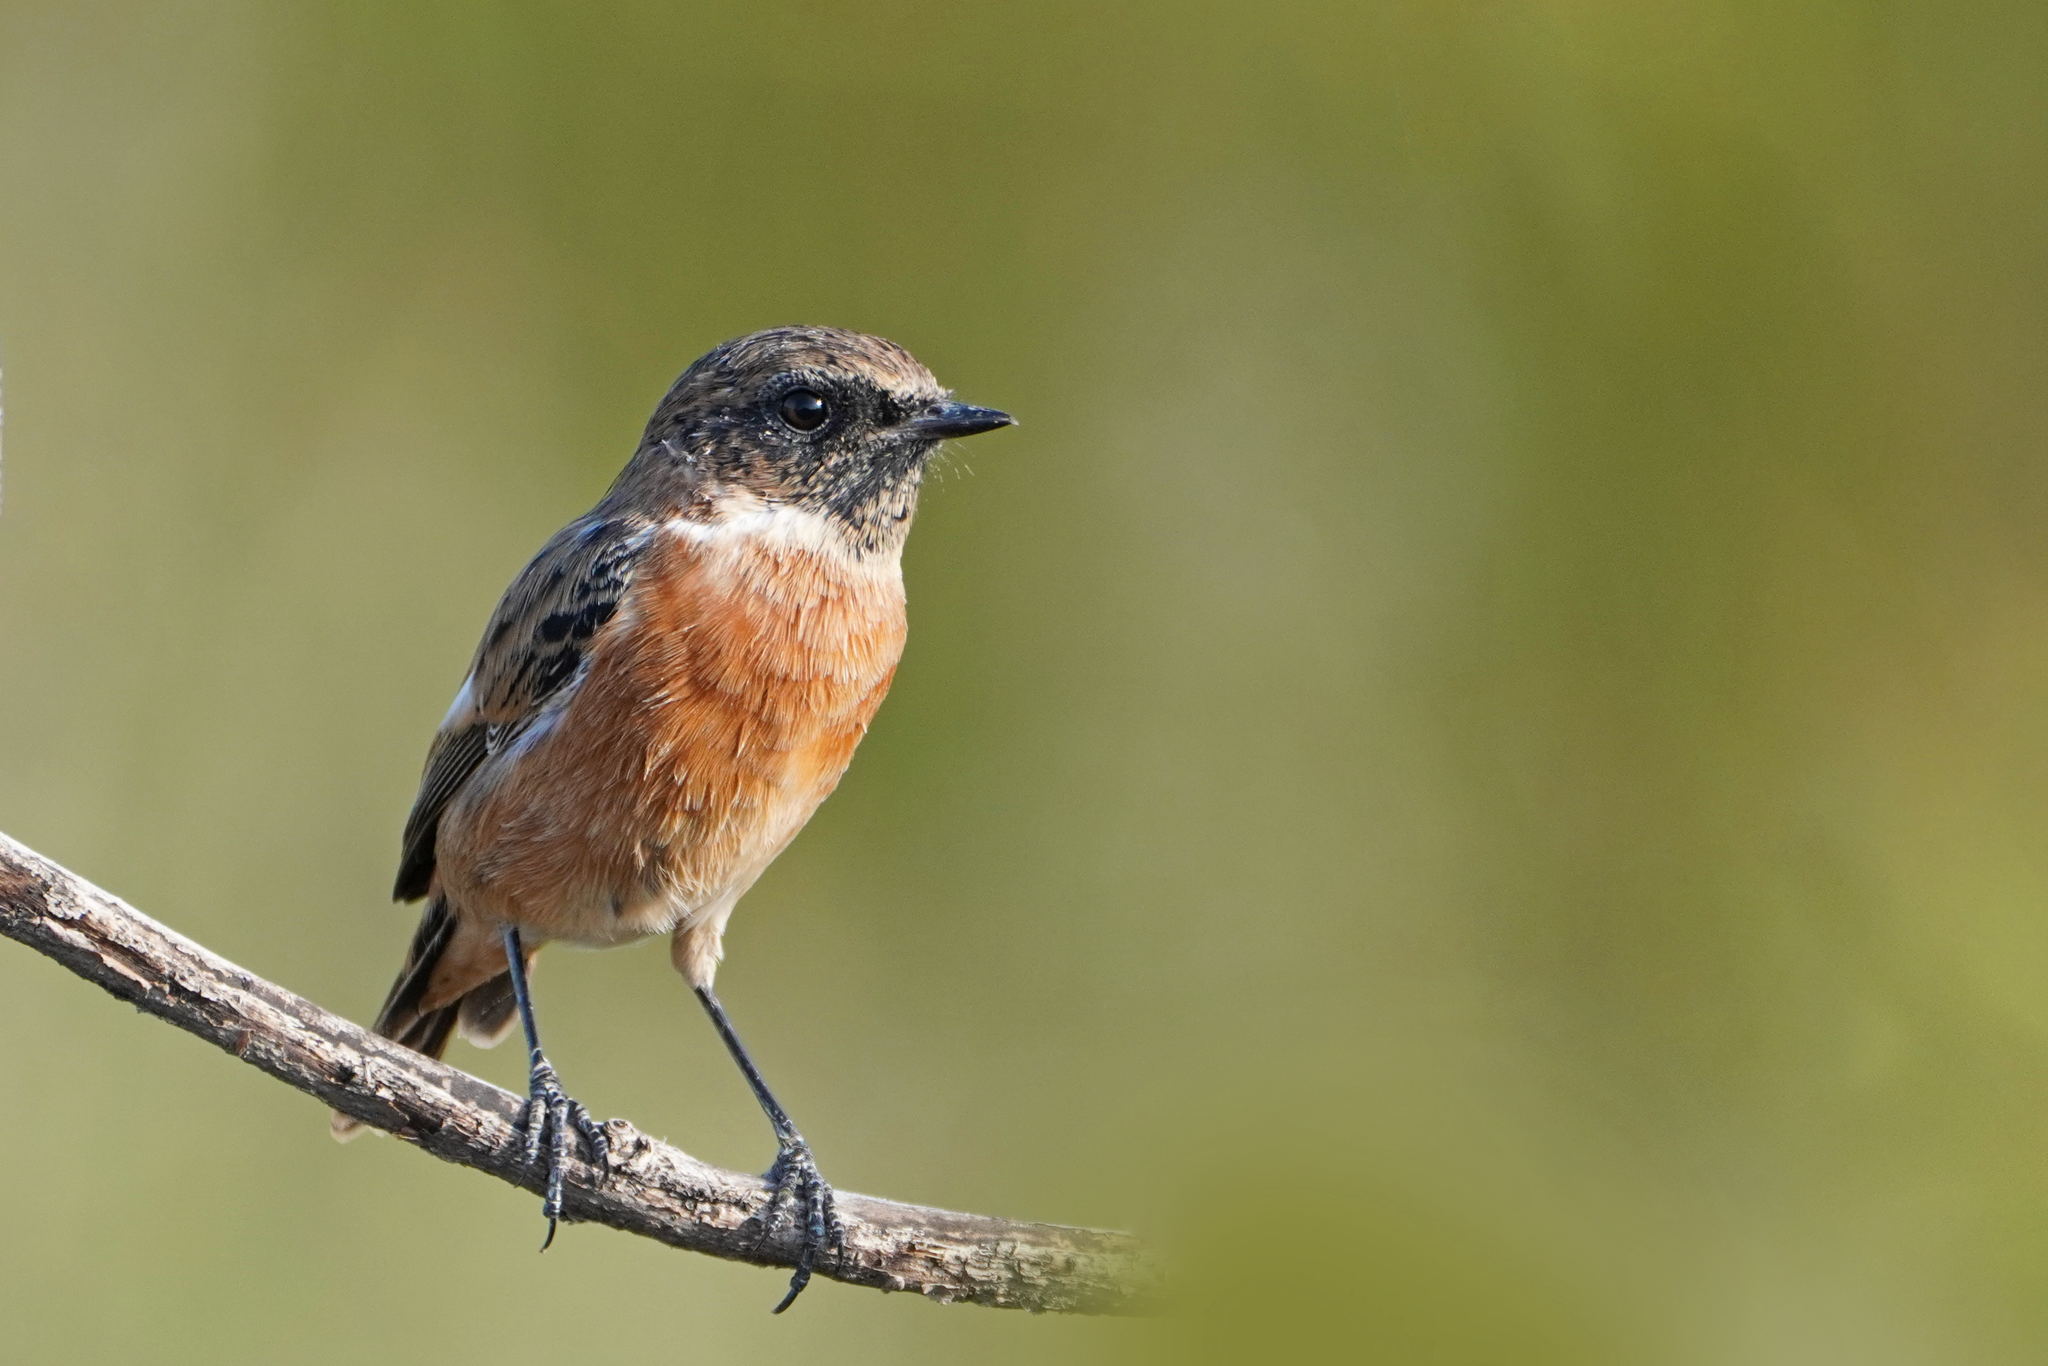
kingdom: Animalia
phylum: Chordata
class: Aves
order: Passeriformes
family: Muscicapidae
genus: Saxicola
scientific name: Saxicola rubicola
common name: European stonechat
